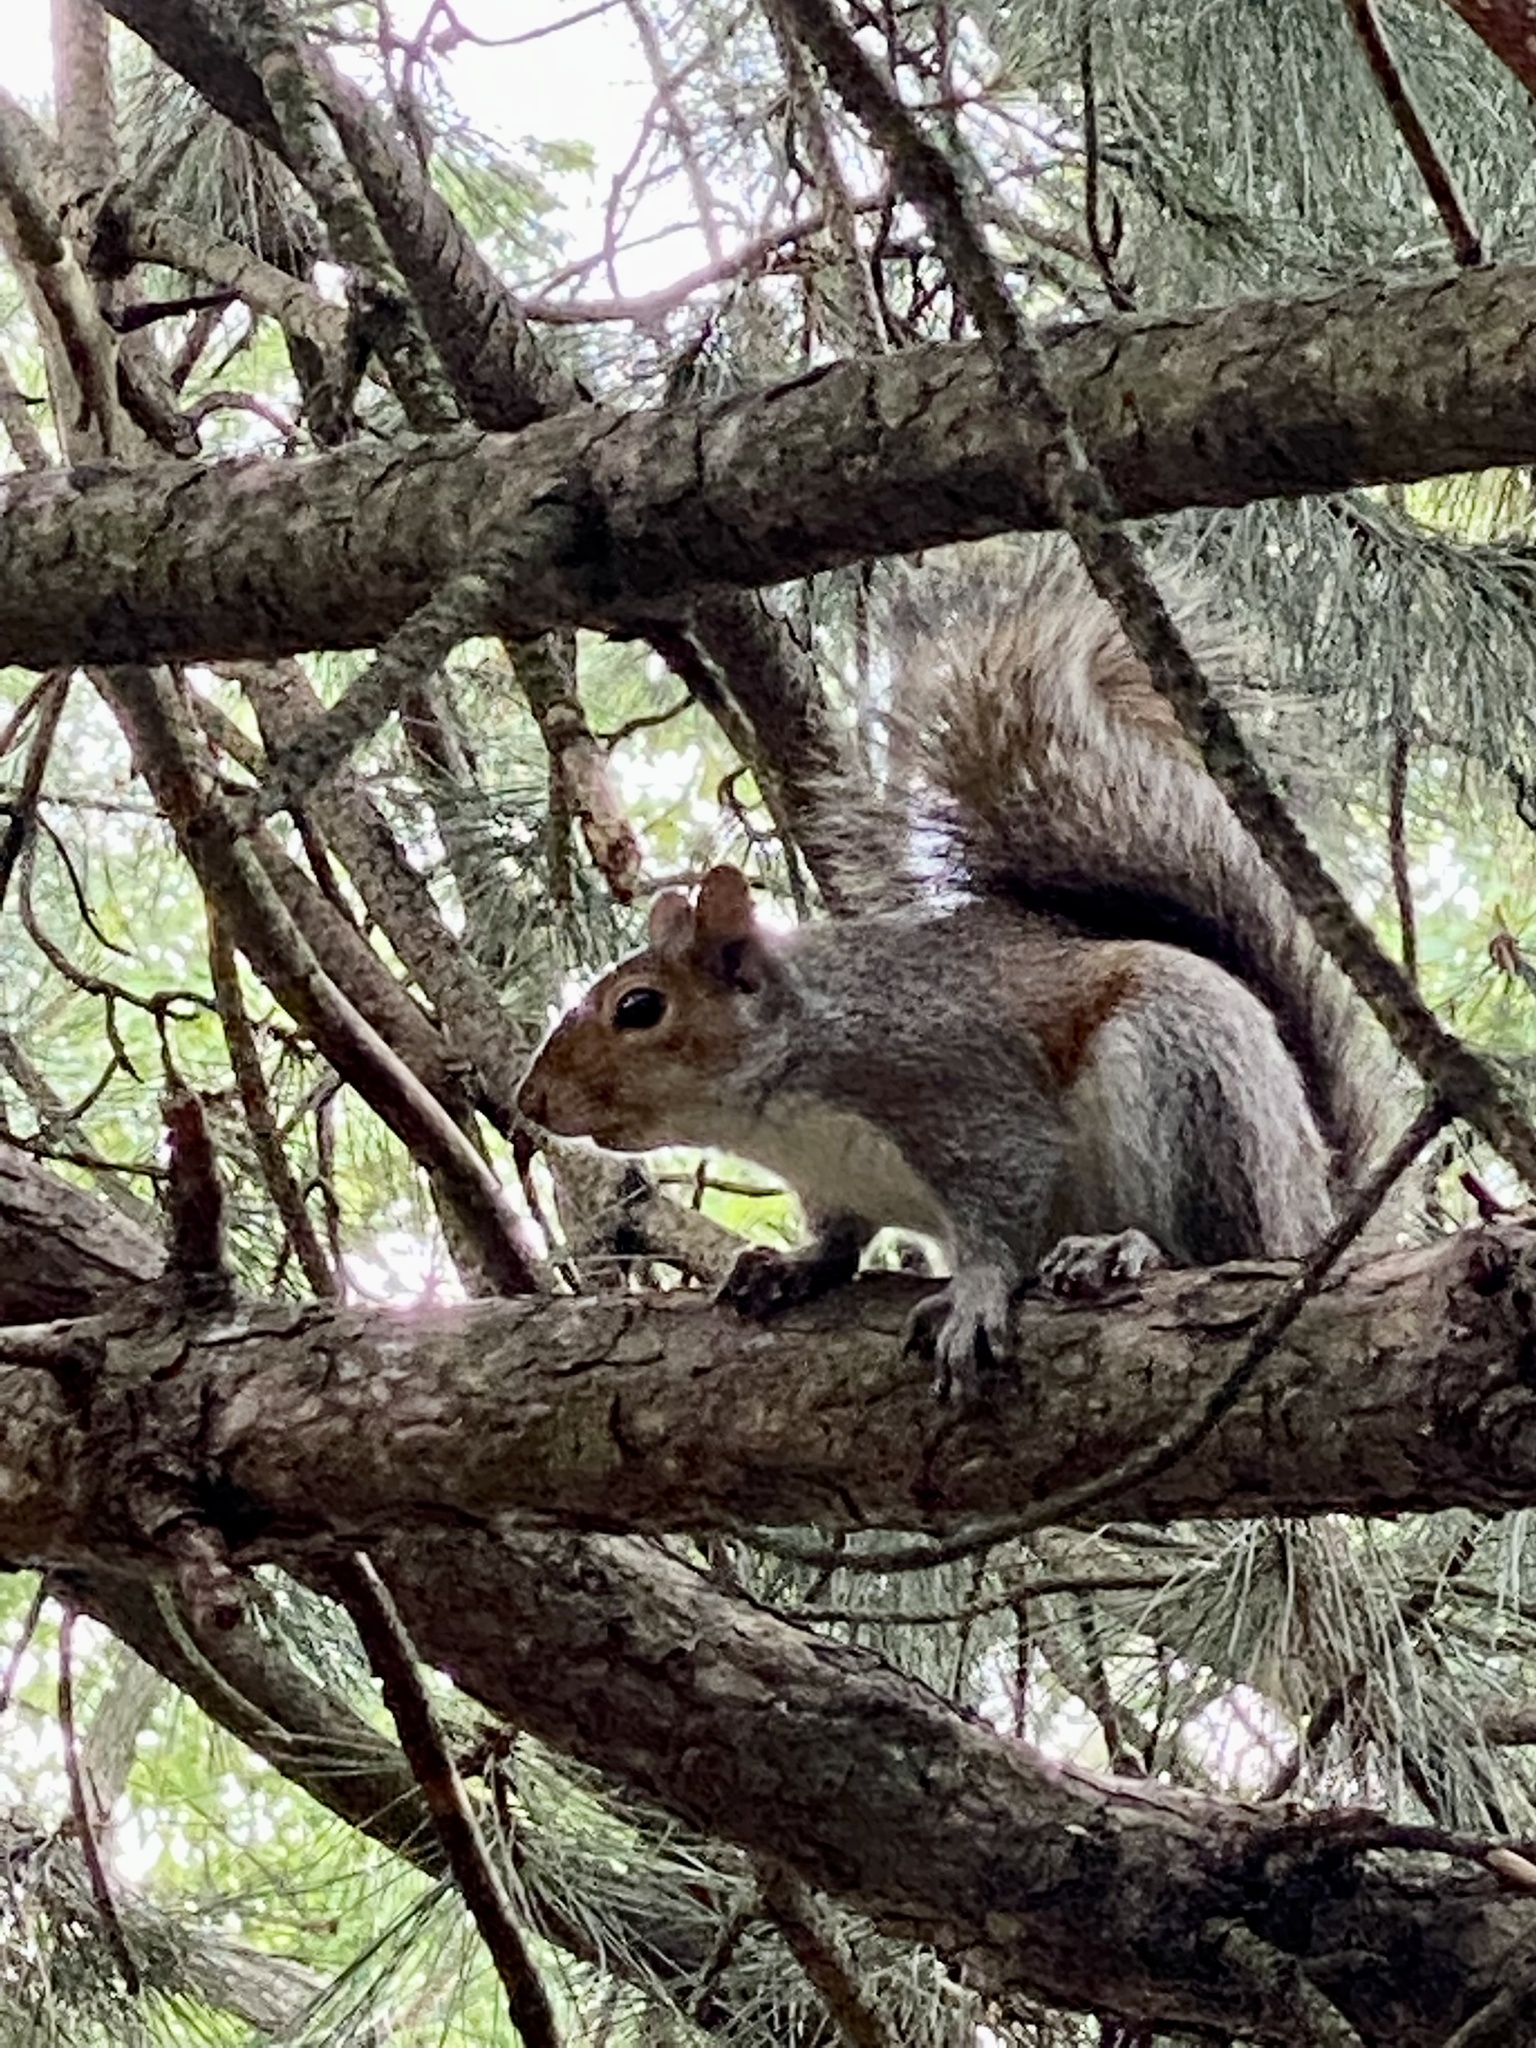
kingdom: Animalia
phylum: Chordata
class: Mammalia
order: Rodentia
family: Sciuridae
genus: Sciurus
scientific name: Sciurus carolinensis
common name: Eastern gray squirrel
